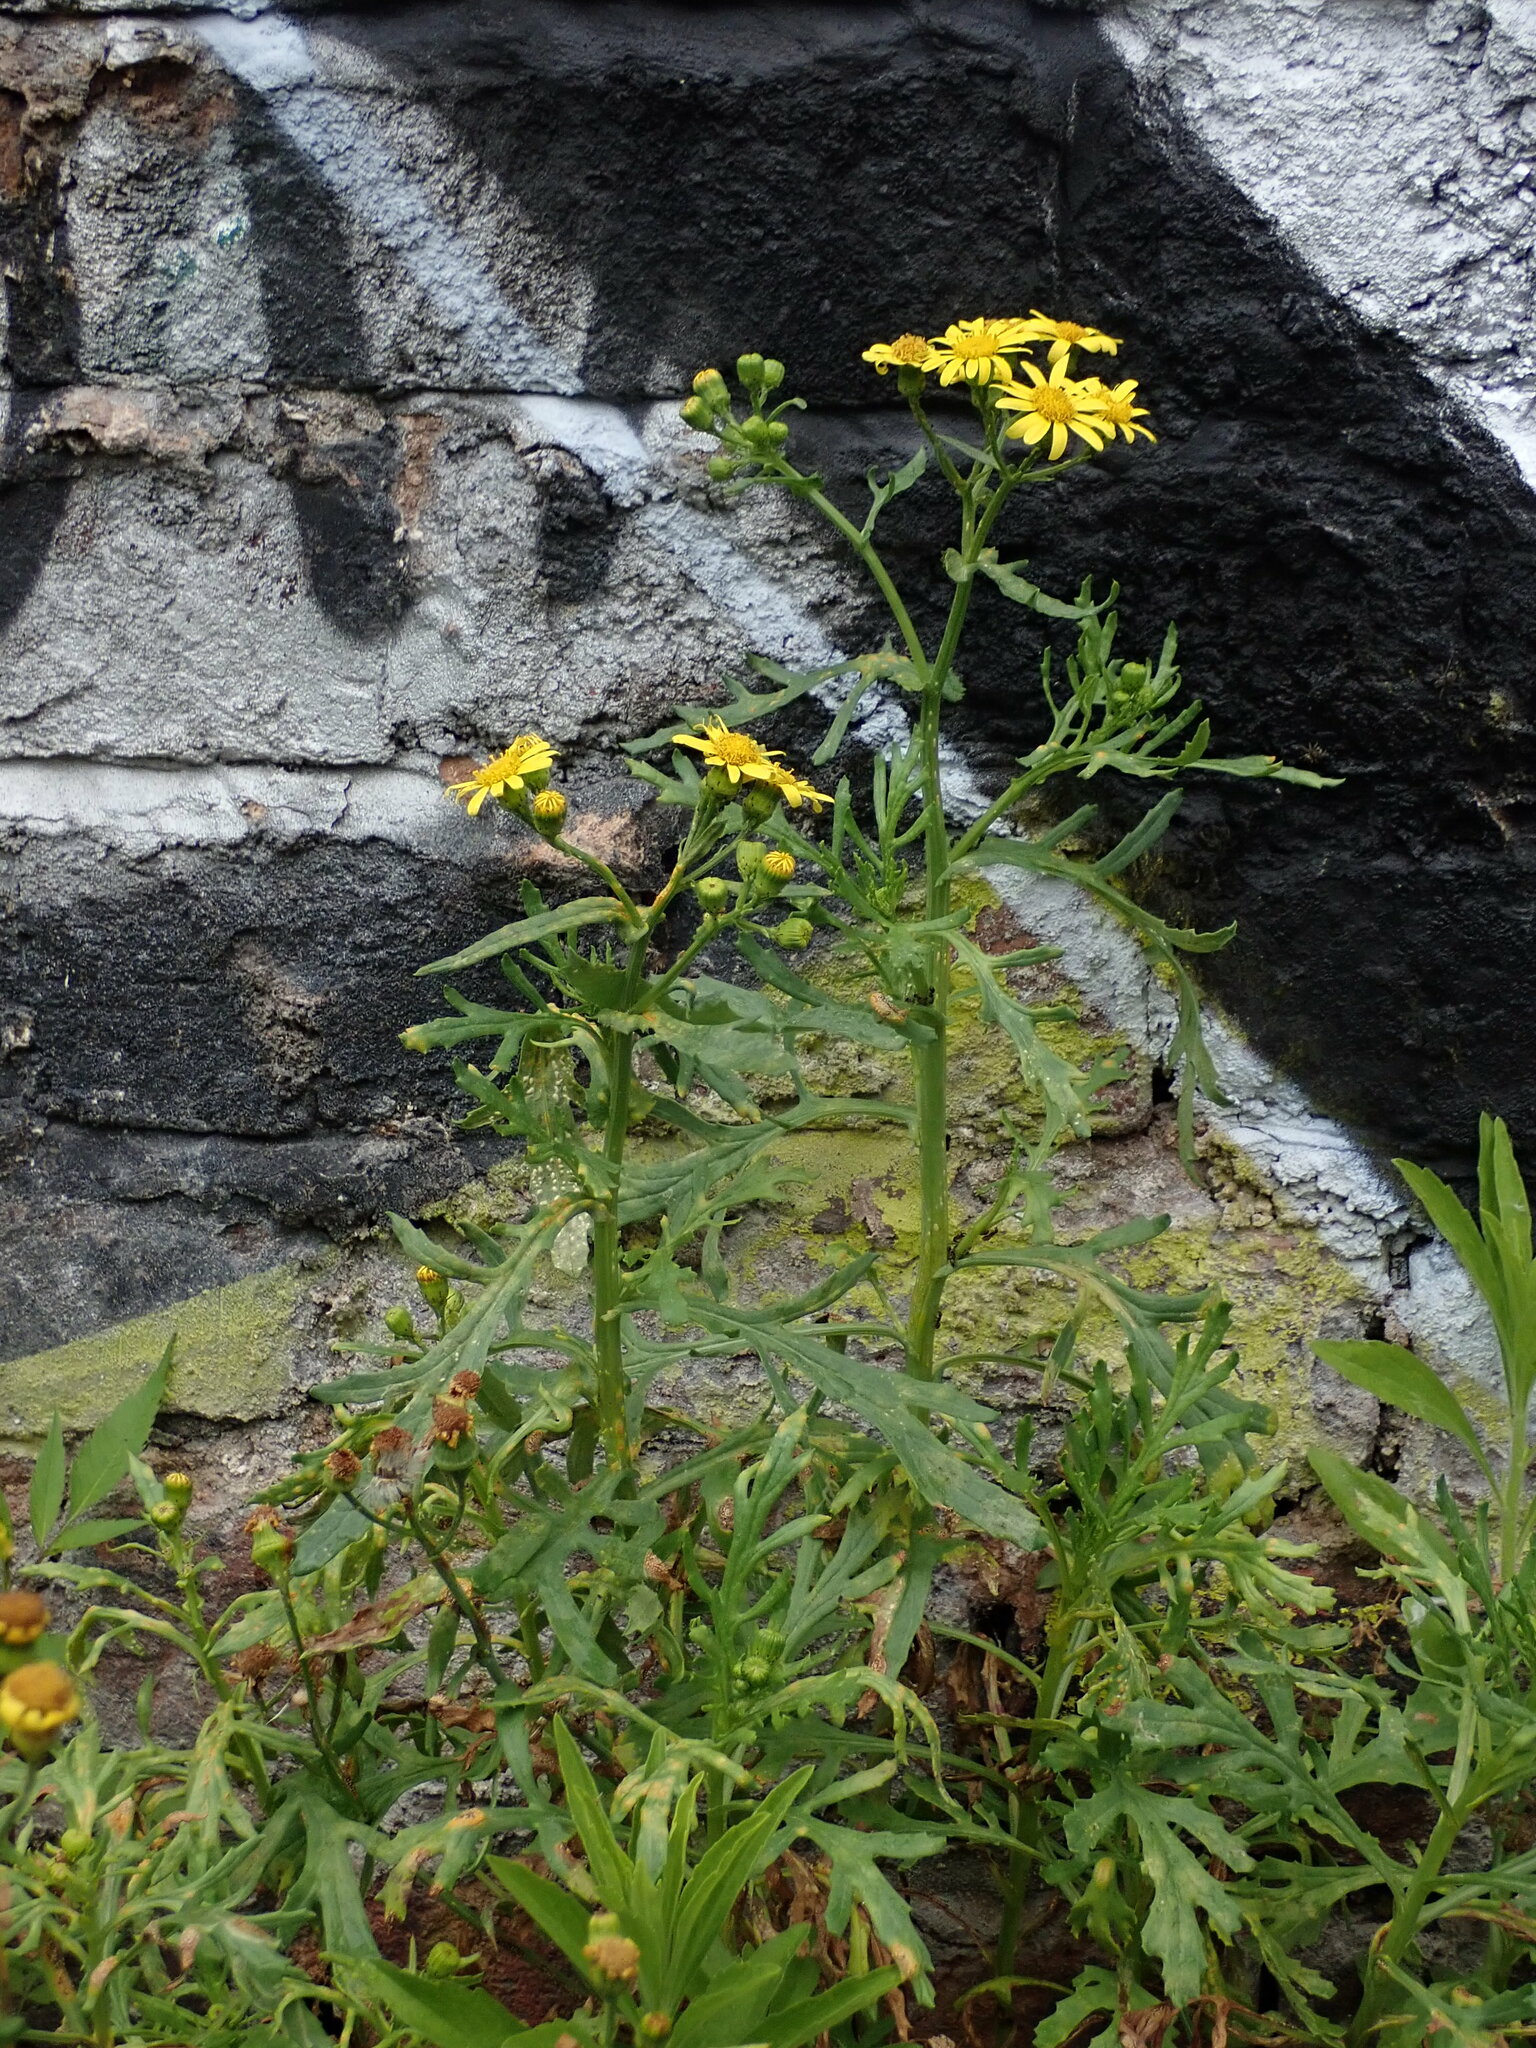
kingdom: Plantae
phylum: Tracheophyta
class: Magnoliopsida
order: Asterales
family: Asteraceae
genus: Senecio
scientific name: Senecio squalidus
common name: Oxford ragwort
